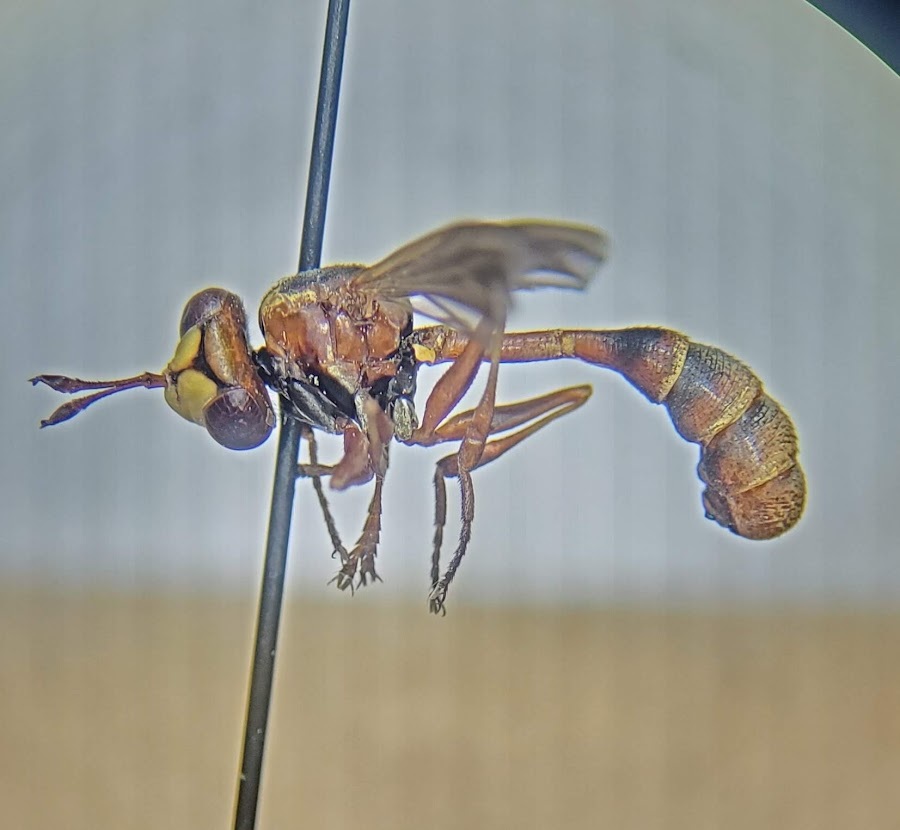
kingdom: Animalia
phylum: Arthropoda
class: Insecta
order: Diptera
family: Conopidae
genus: Physocephala
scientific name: Physocephala sagittaria
